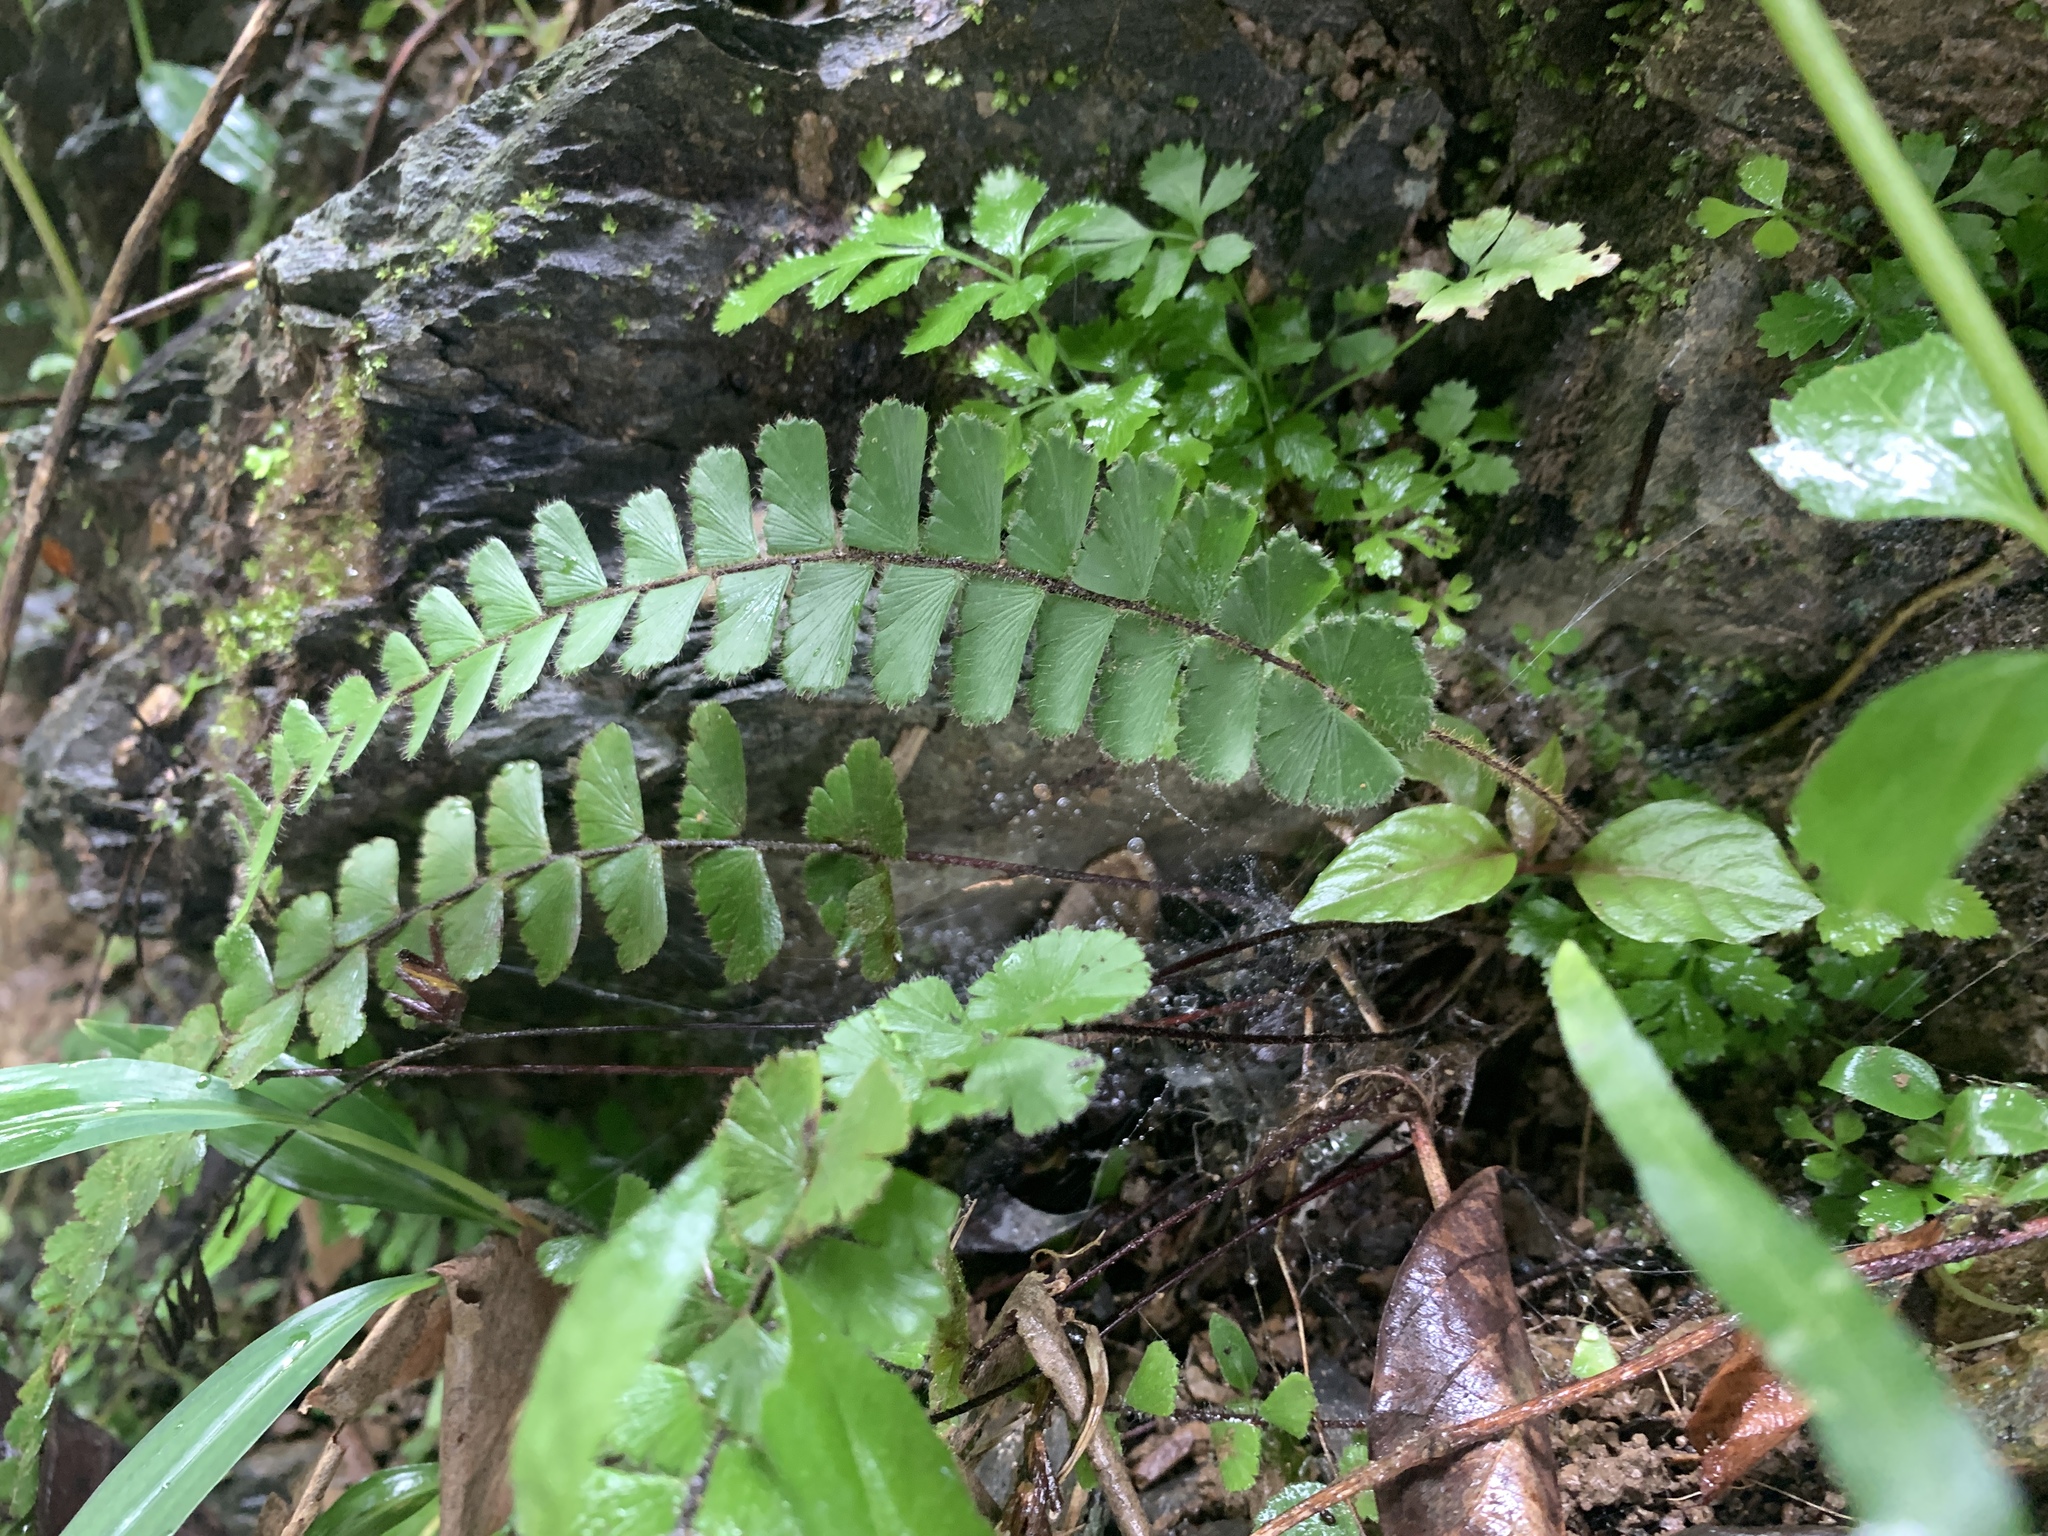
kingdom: Plantae
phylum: Tracheophyta
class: Polypodiopsida
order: Polypodiales
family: Pteridaceae
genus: Adiantum
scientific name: Adiantum ciliatum
